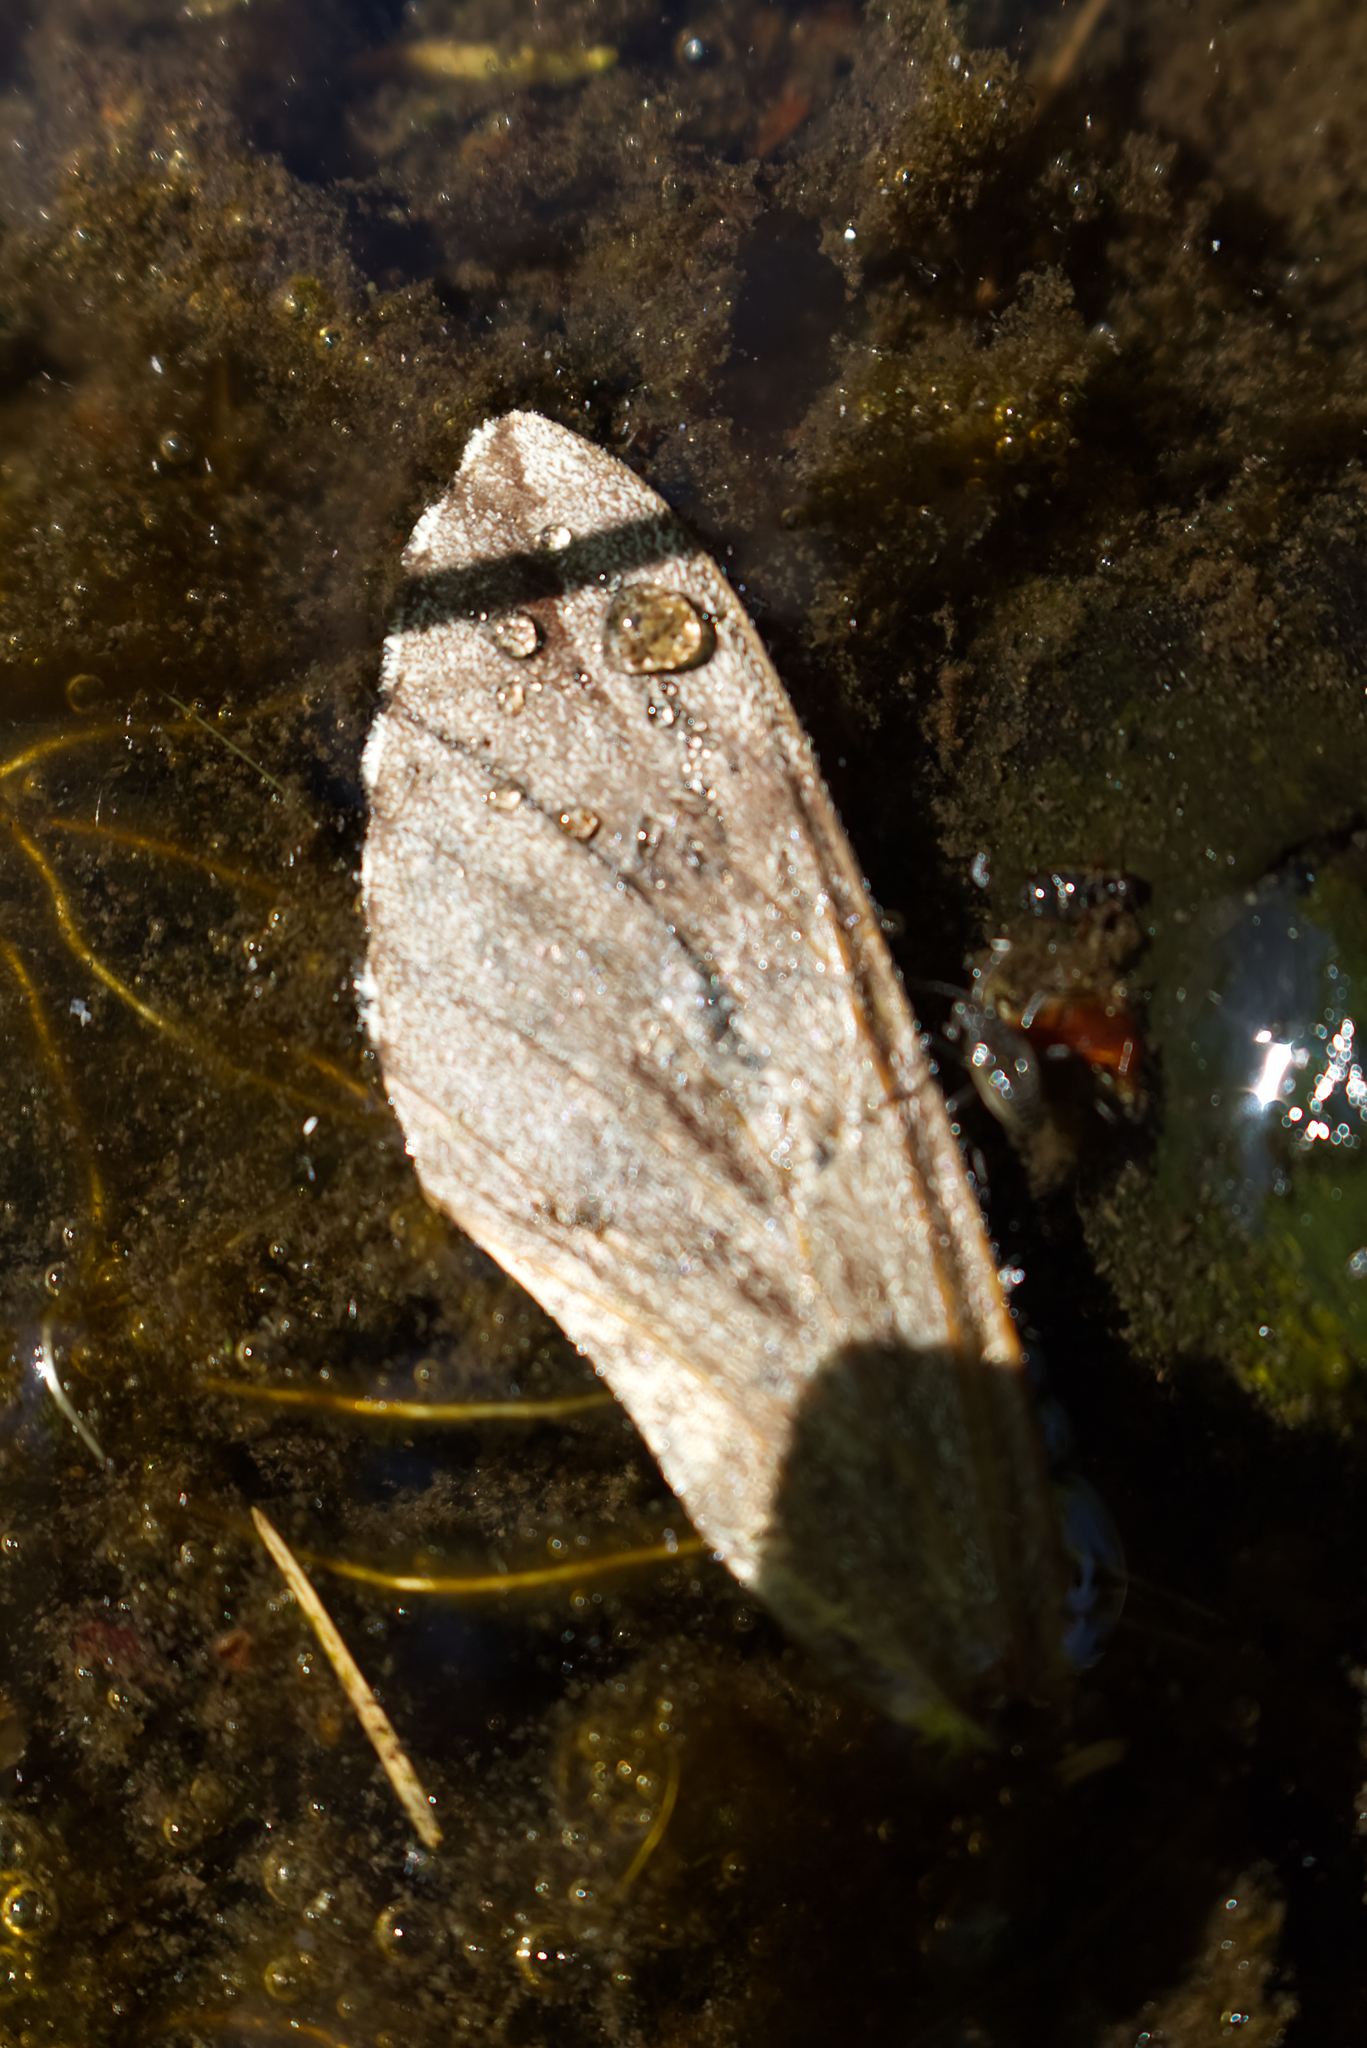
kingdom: Animalia
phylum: Arthropoda
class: Insecta
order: Lepidoptera
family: Sphingidae
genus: Sphinx
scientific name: Sphinx pinastri
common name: Pine hawk-moth
